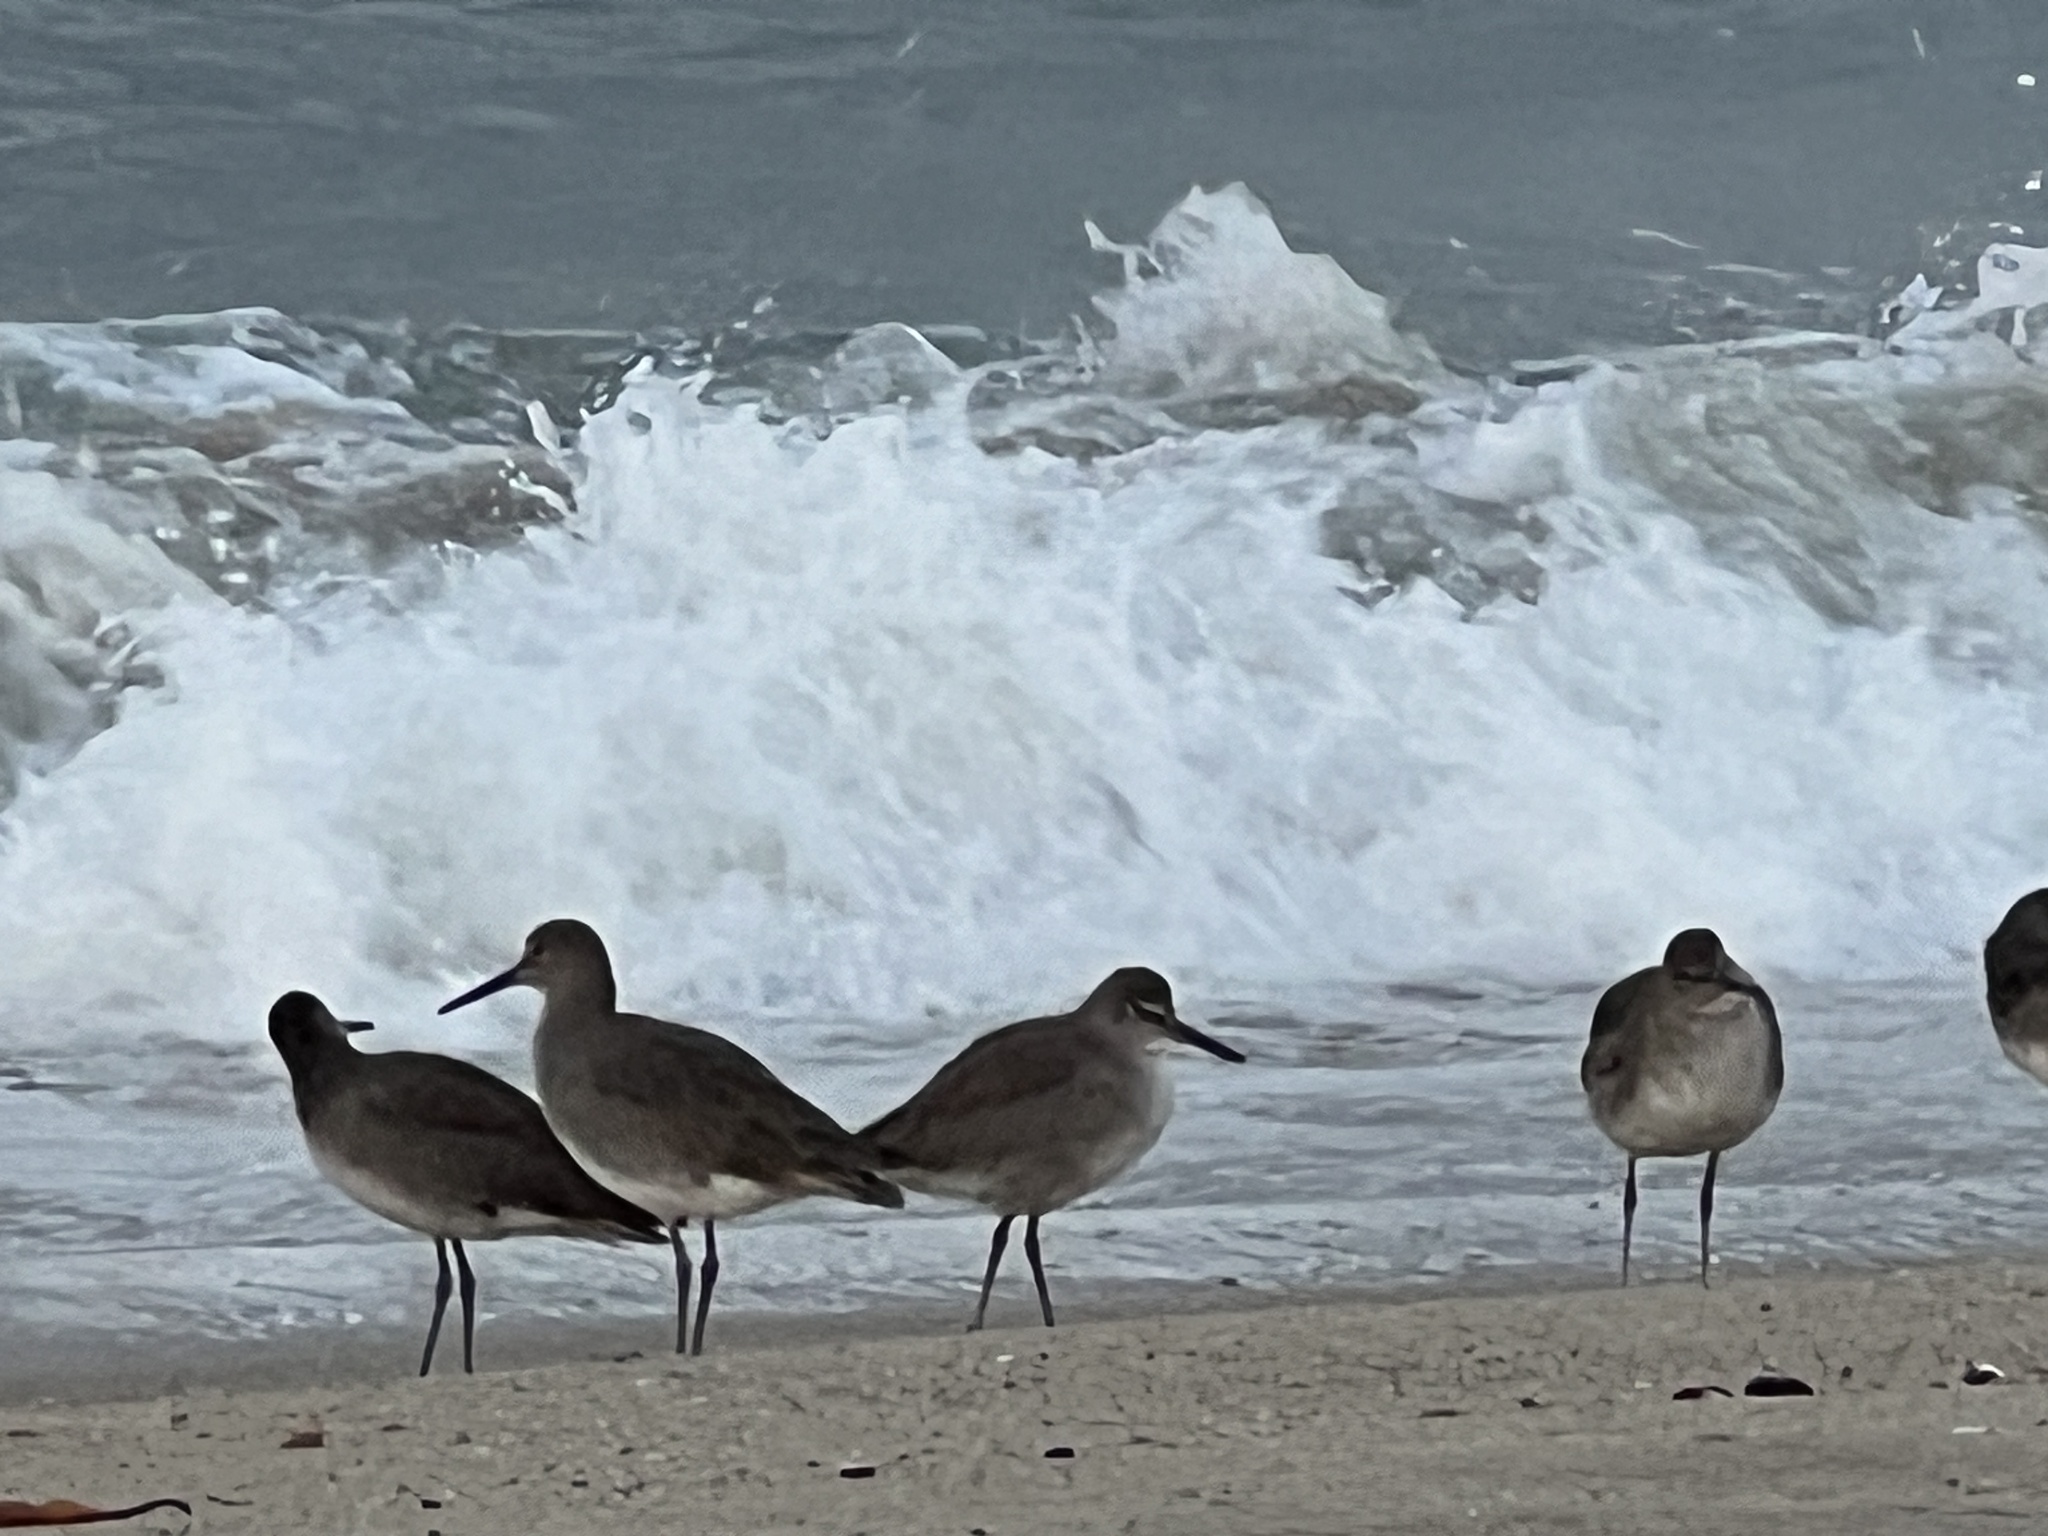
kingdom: Animalia
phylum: Chordata
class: Aves
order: Charadriiformes
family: Scolopacidae
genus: Tringa
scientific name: Tringa semipalmata
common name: Willet
